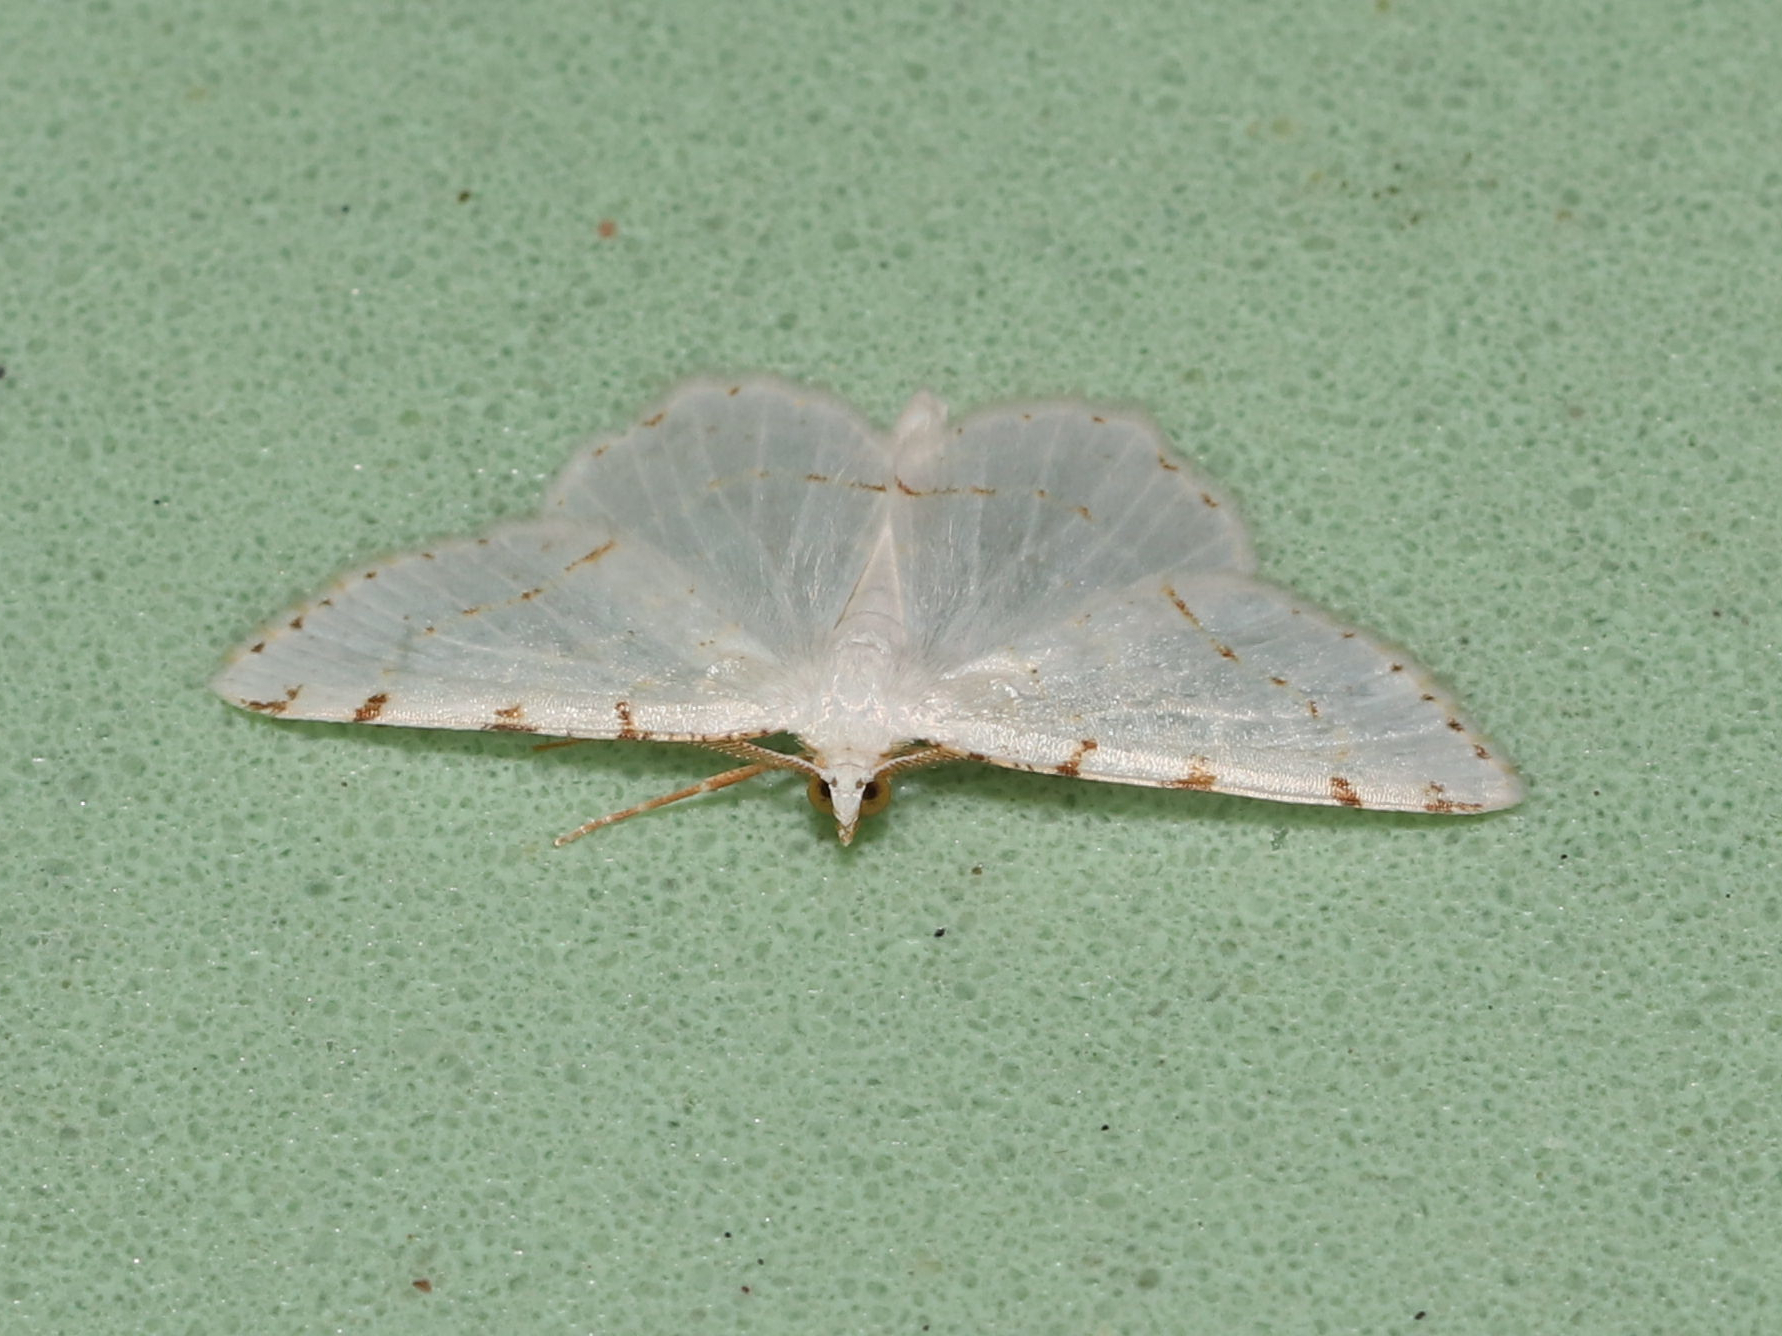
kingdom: Animalia
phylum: Arthropoda
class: Insecta
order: Lepidoptera
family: Geometridae
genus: Macaria
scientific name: Macaria pustularia
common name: Lesser maple spanworm moth
